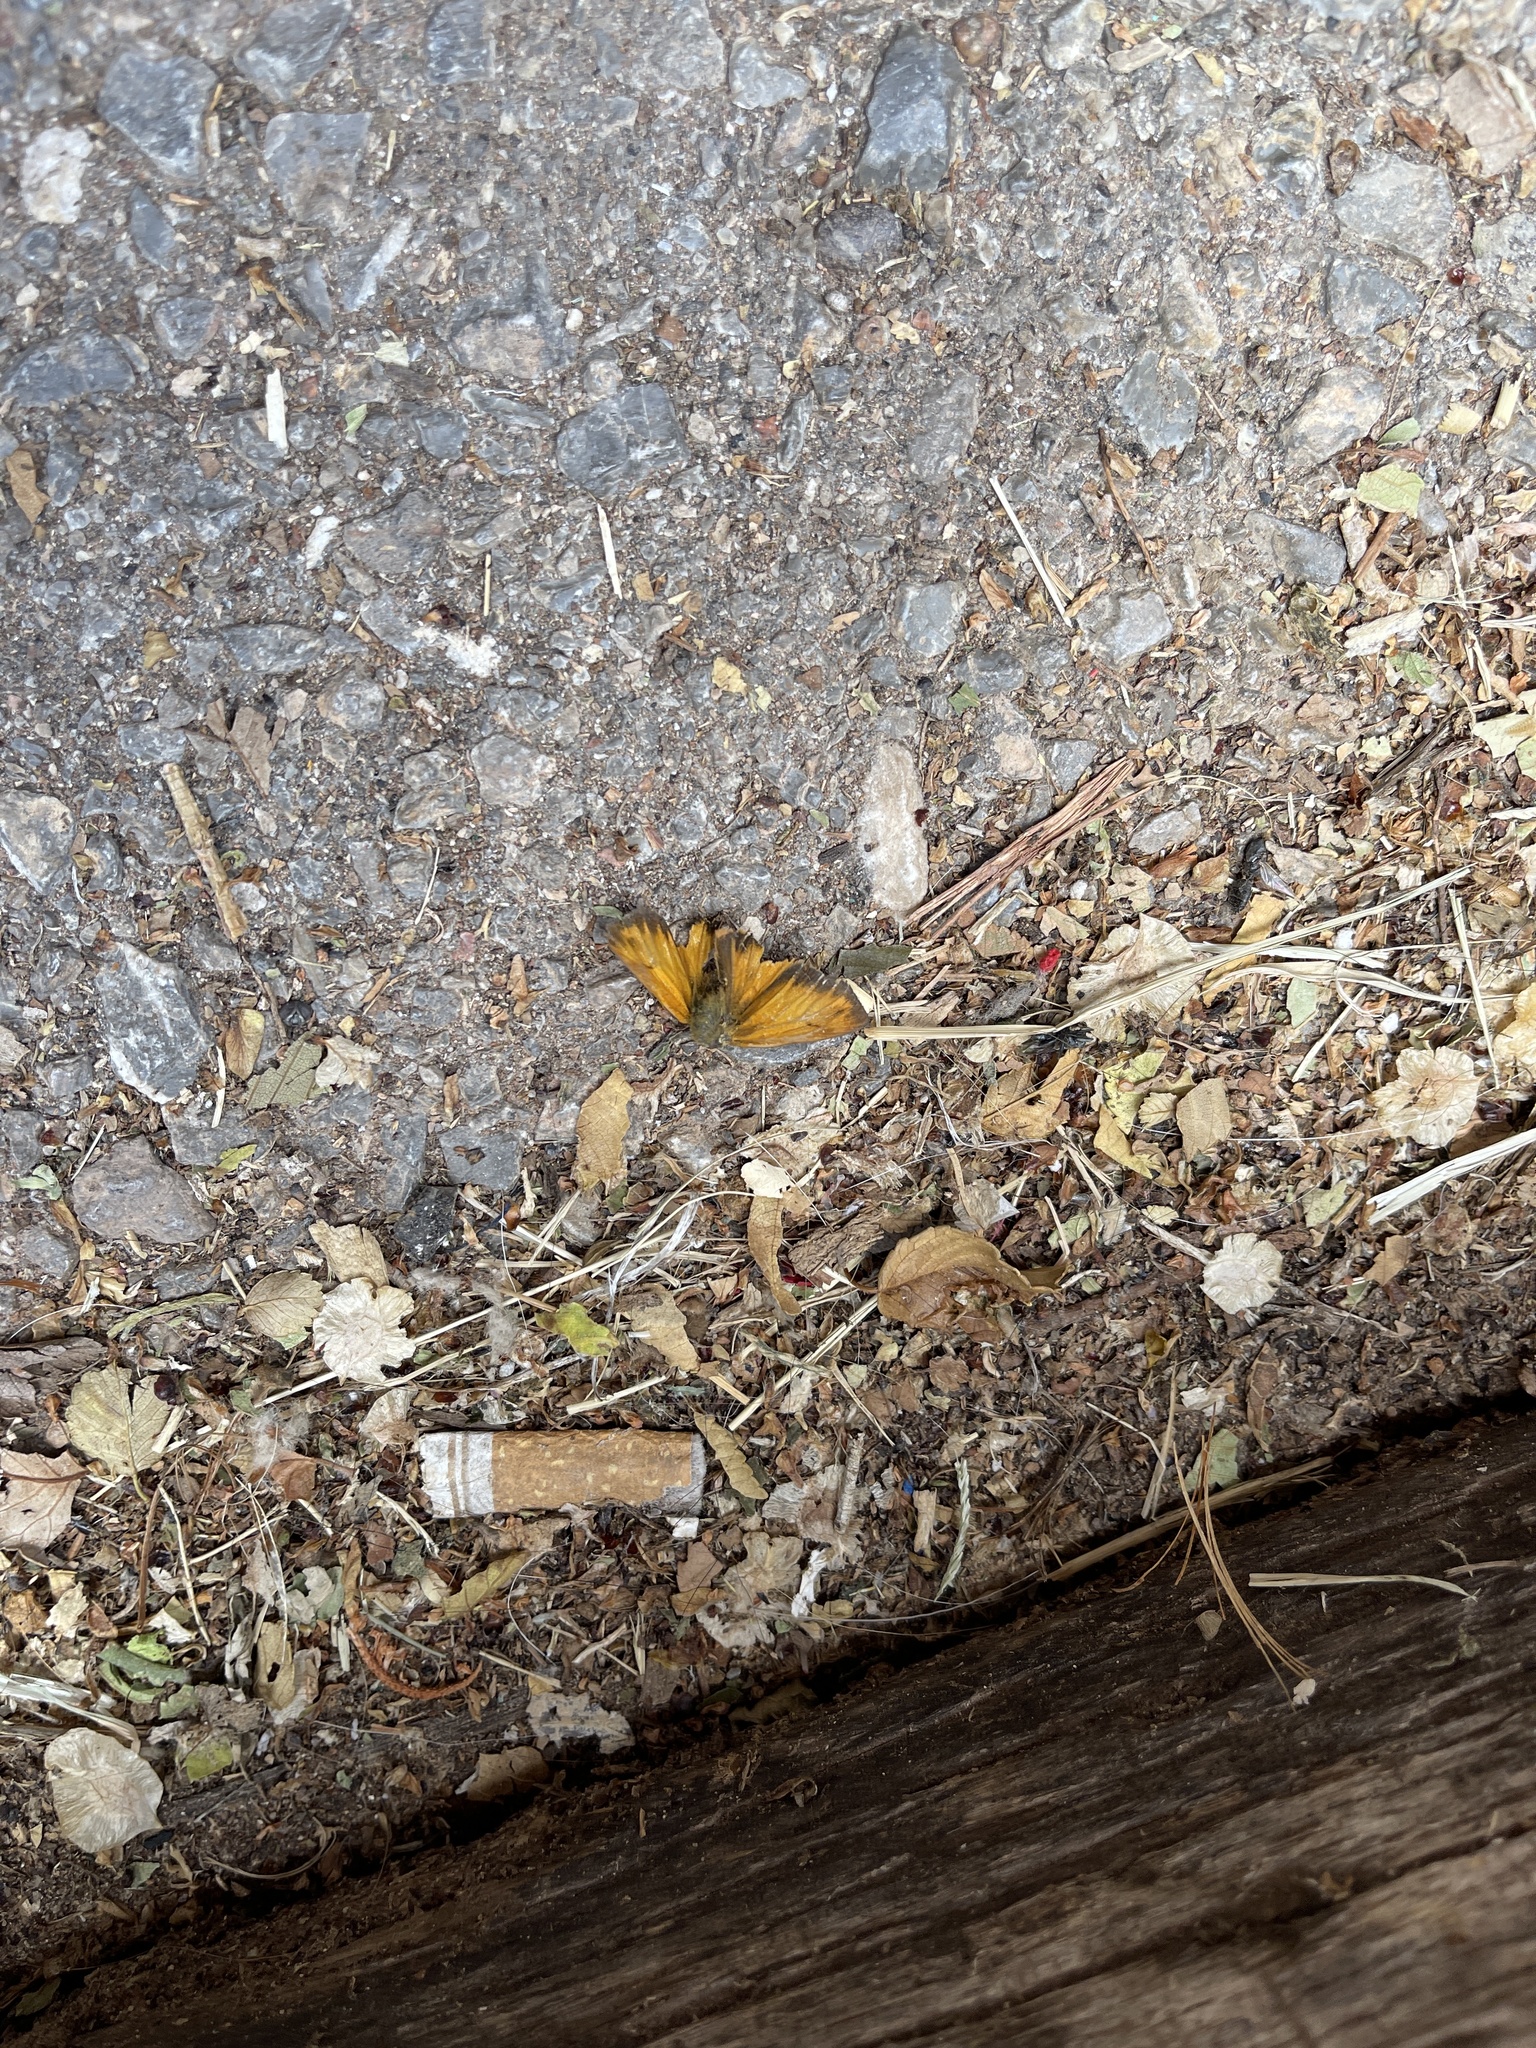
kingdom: Animalia
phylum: Arthropoda
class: Insecta
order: Lepidoptera
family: Hesperiidae
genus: Lon
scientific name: Lon taxiles
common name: Taxiles skipper
